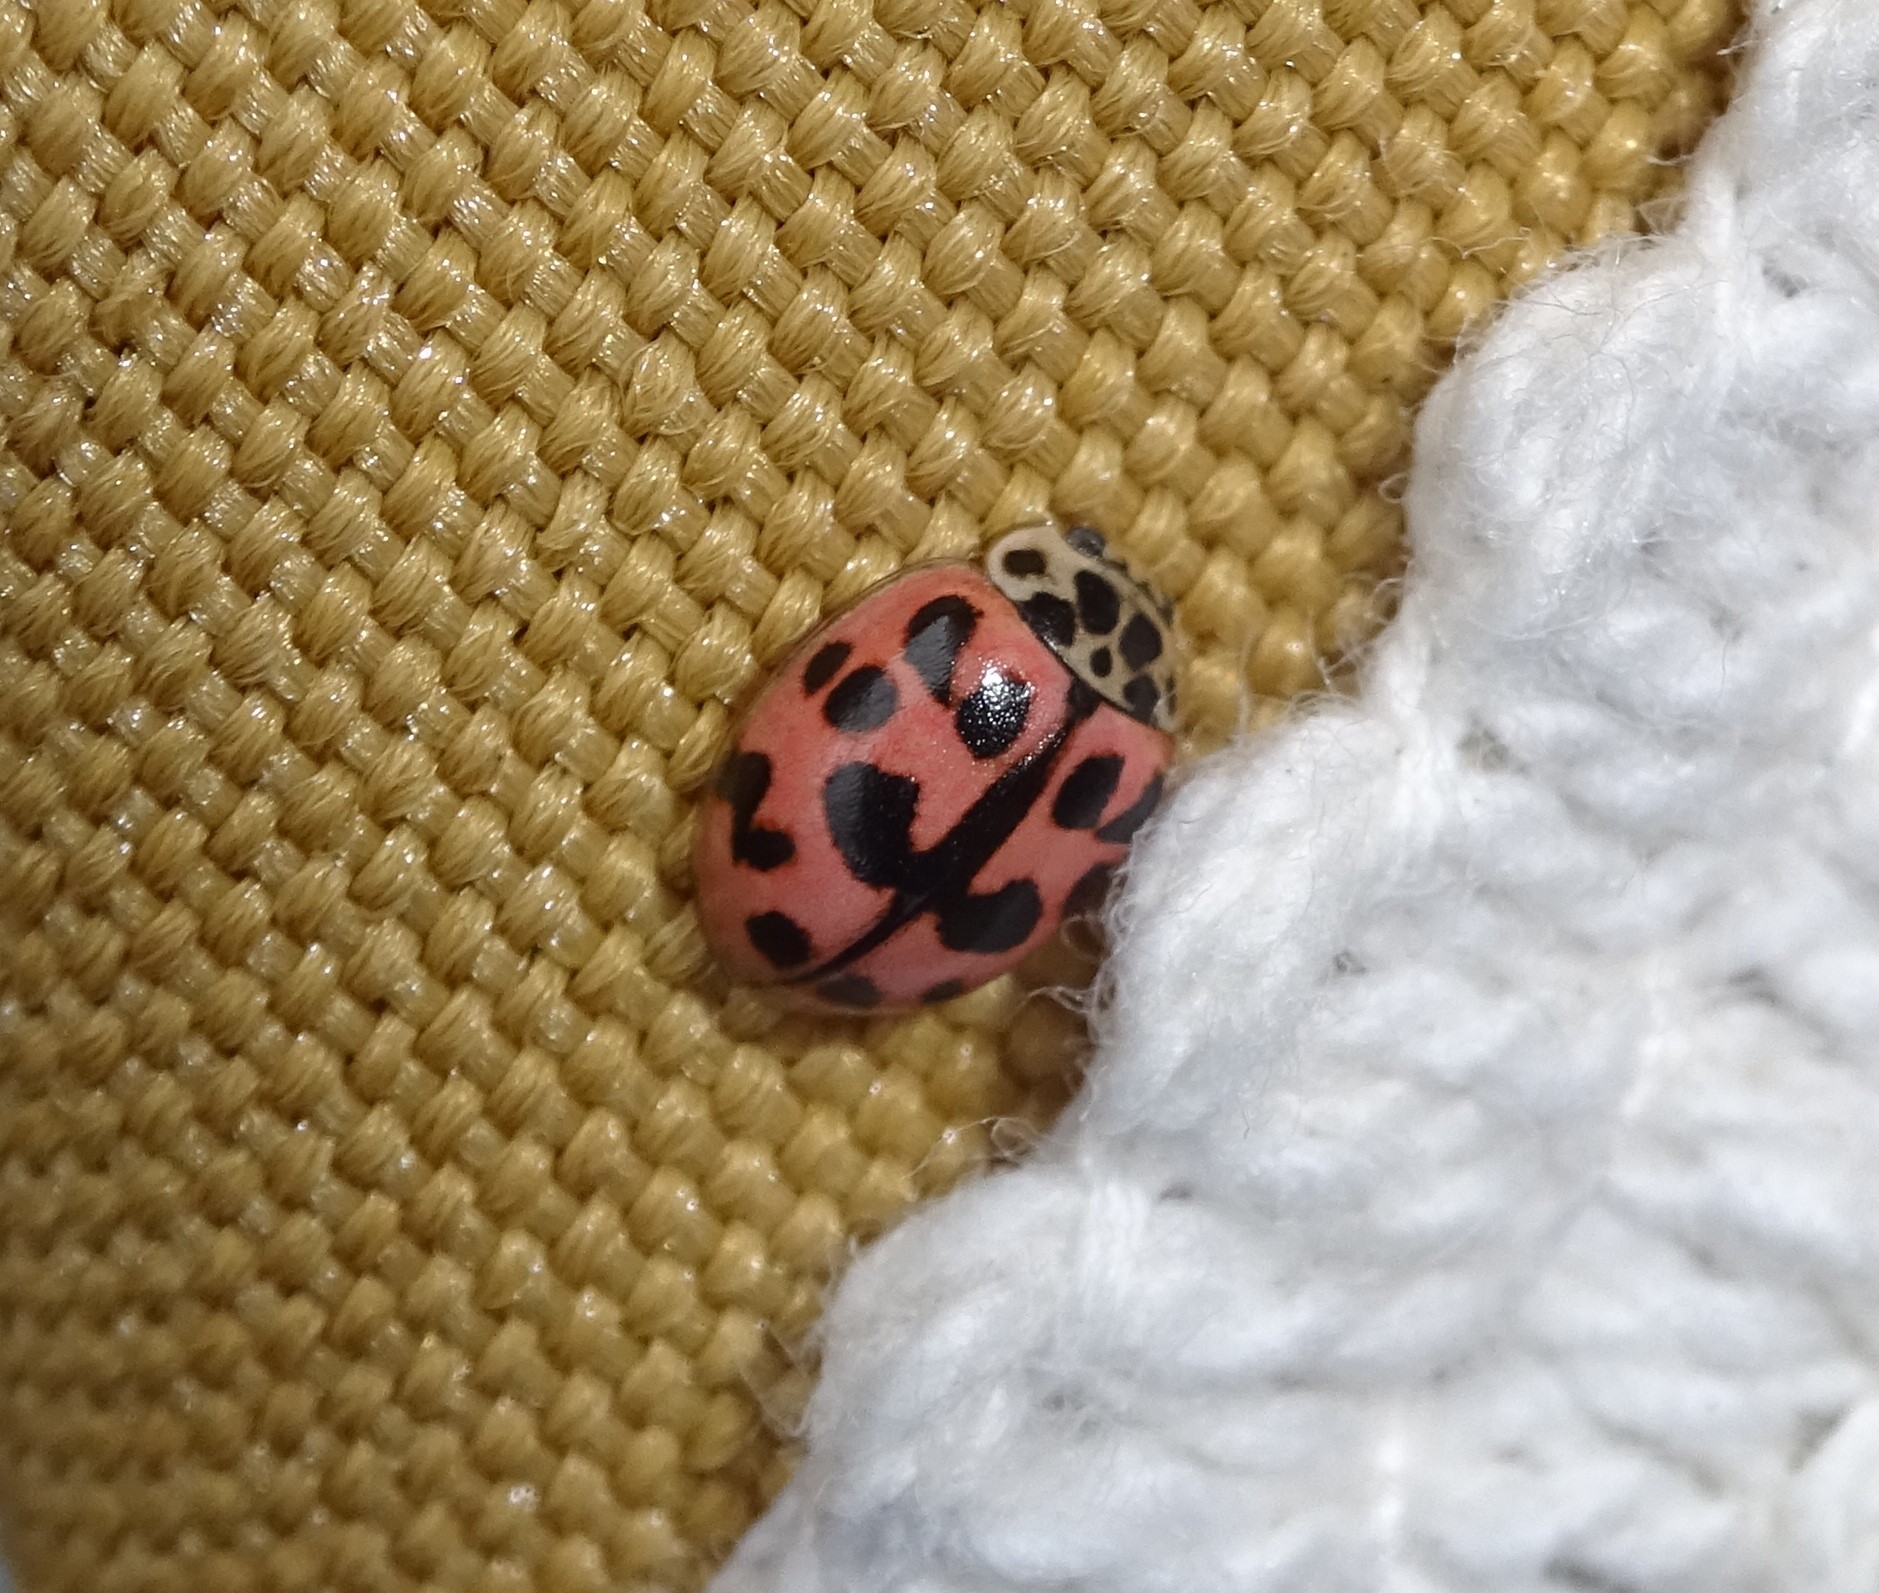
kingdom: Animalia
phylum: Arthropoda
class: Insecta
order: Coleoptera
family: Coccinellidae
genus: Oenopia
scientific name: Oenopia conglobata
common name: Ladybird beetle
